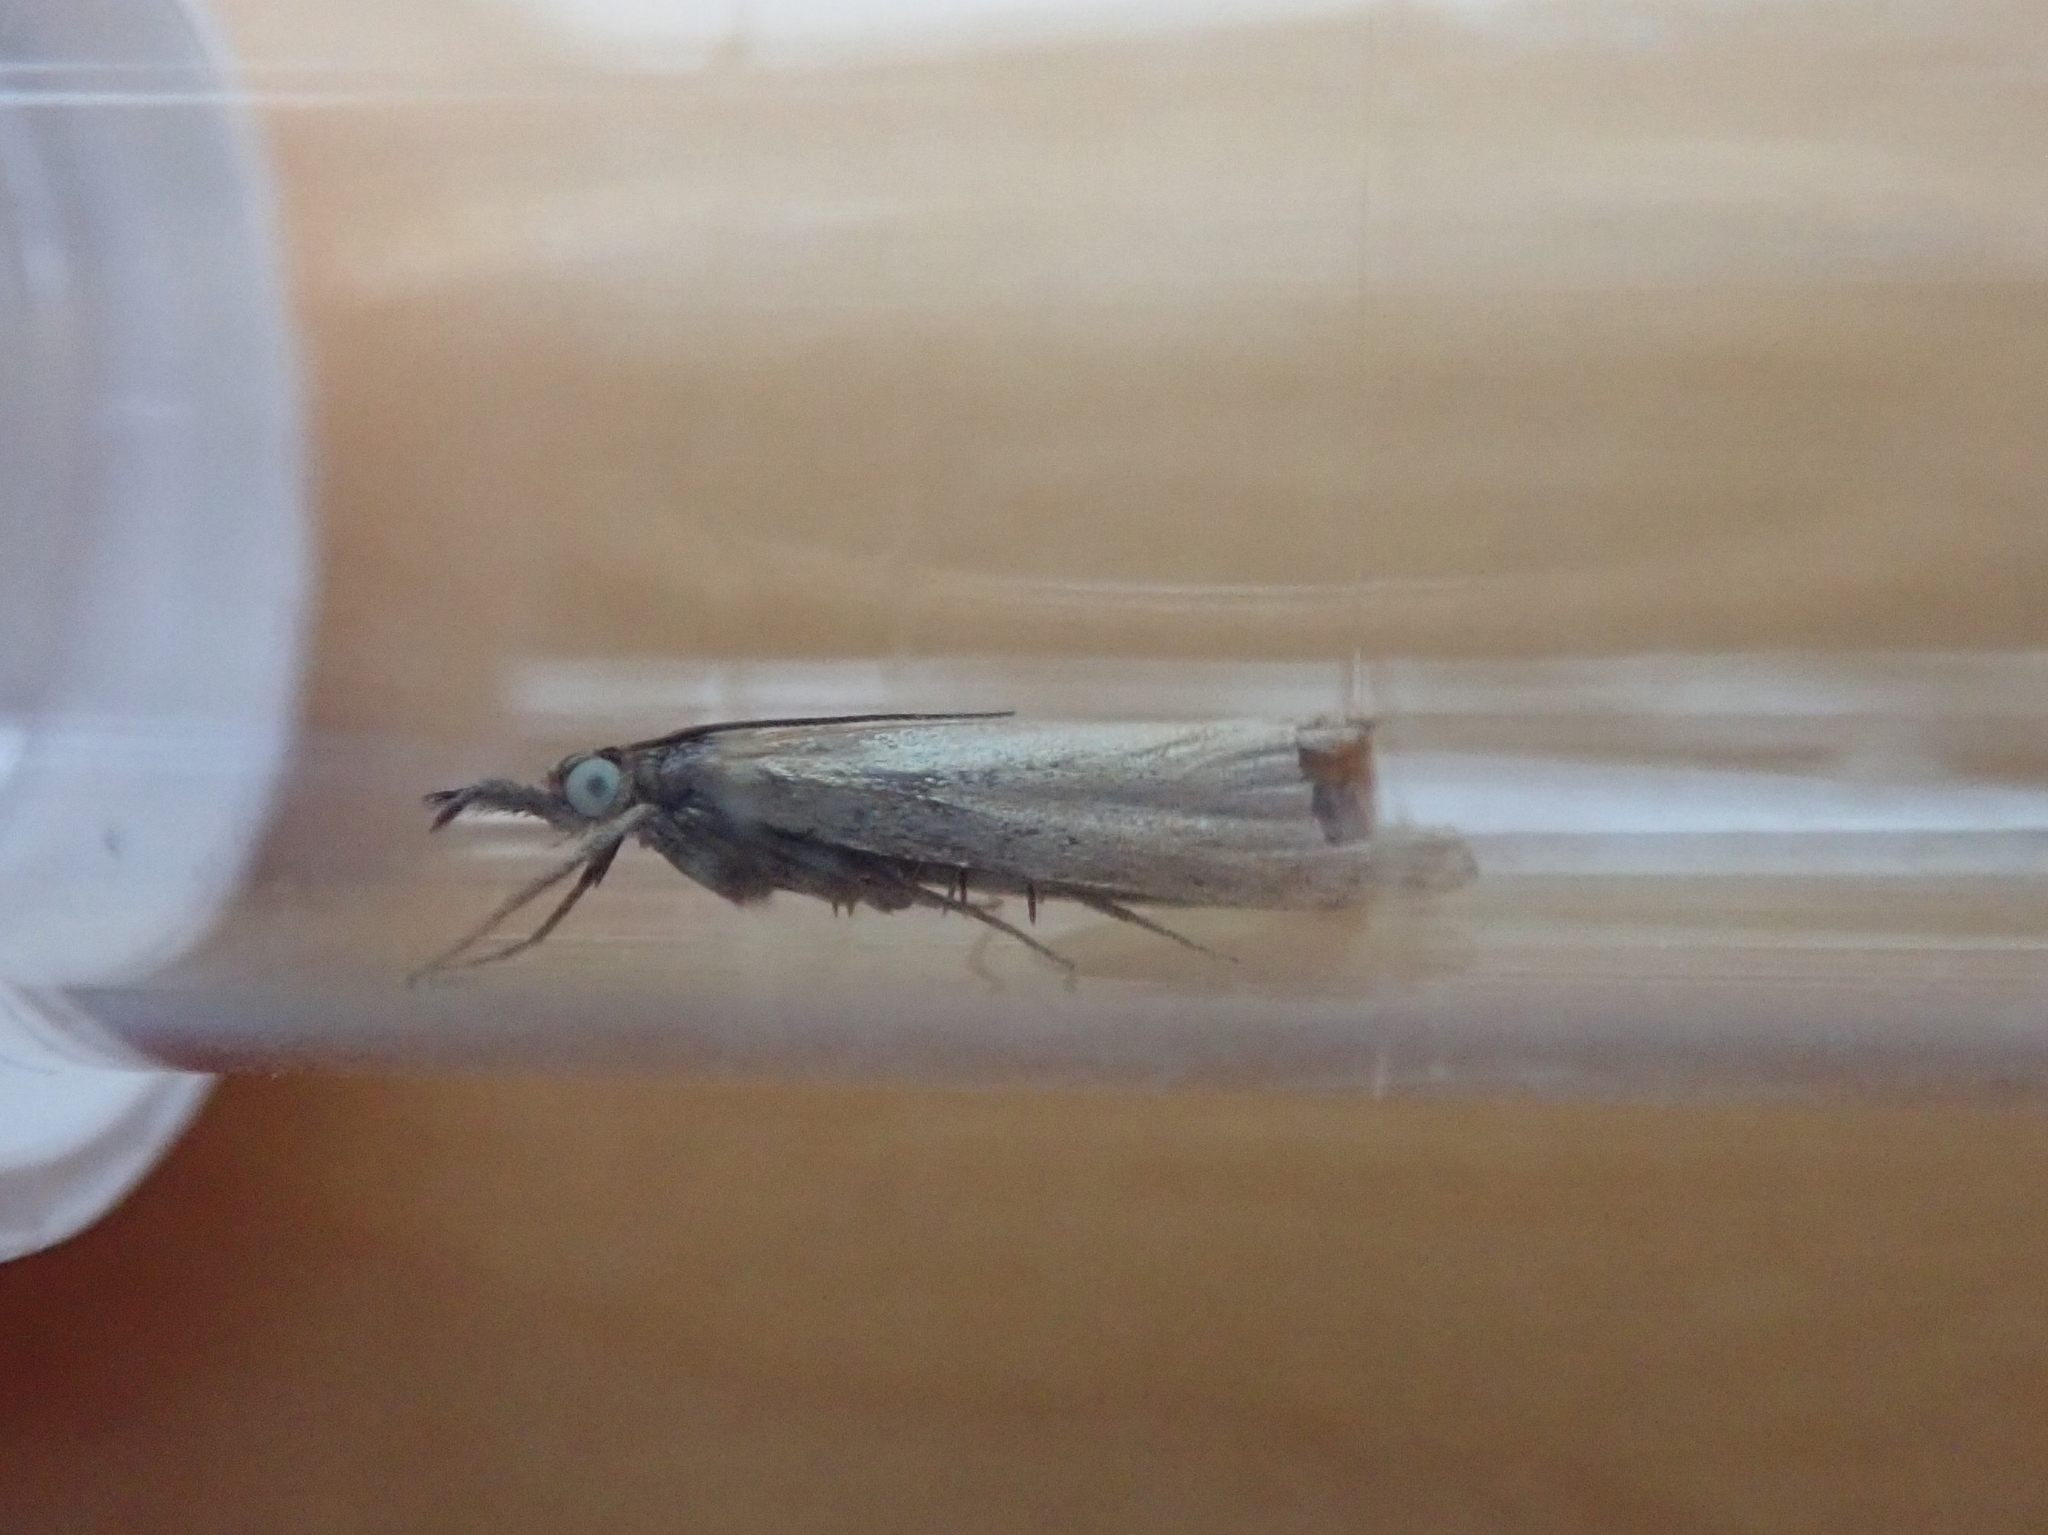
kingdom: Animalia
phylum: Arthropoda
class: Insecta
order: Lepidoptera
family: Crambidae
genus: Chrysoteuchia
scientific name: Chrysoteuchia culmella
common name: Garden grass-veneer
